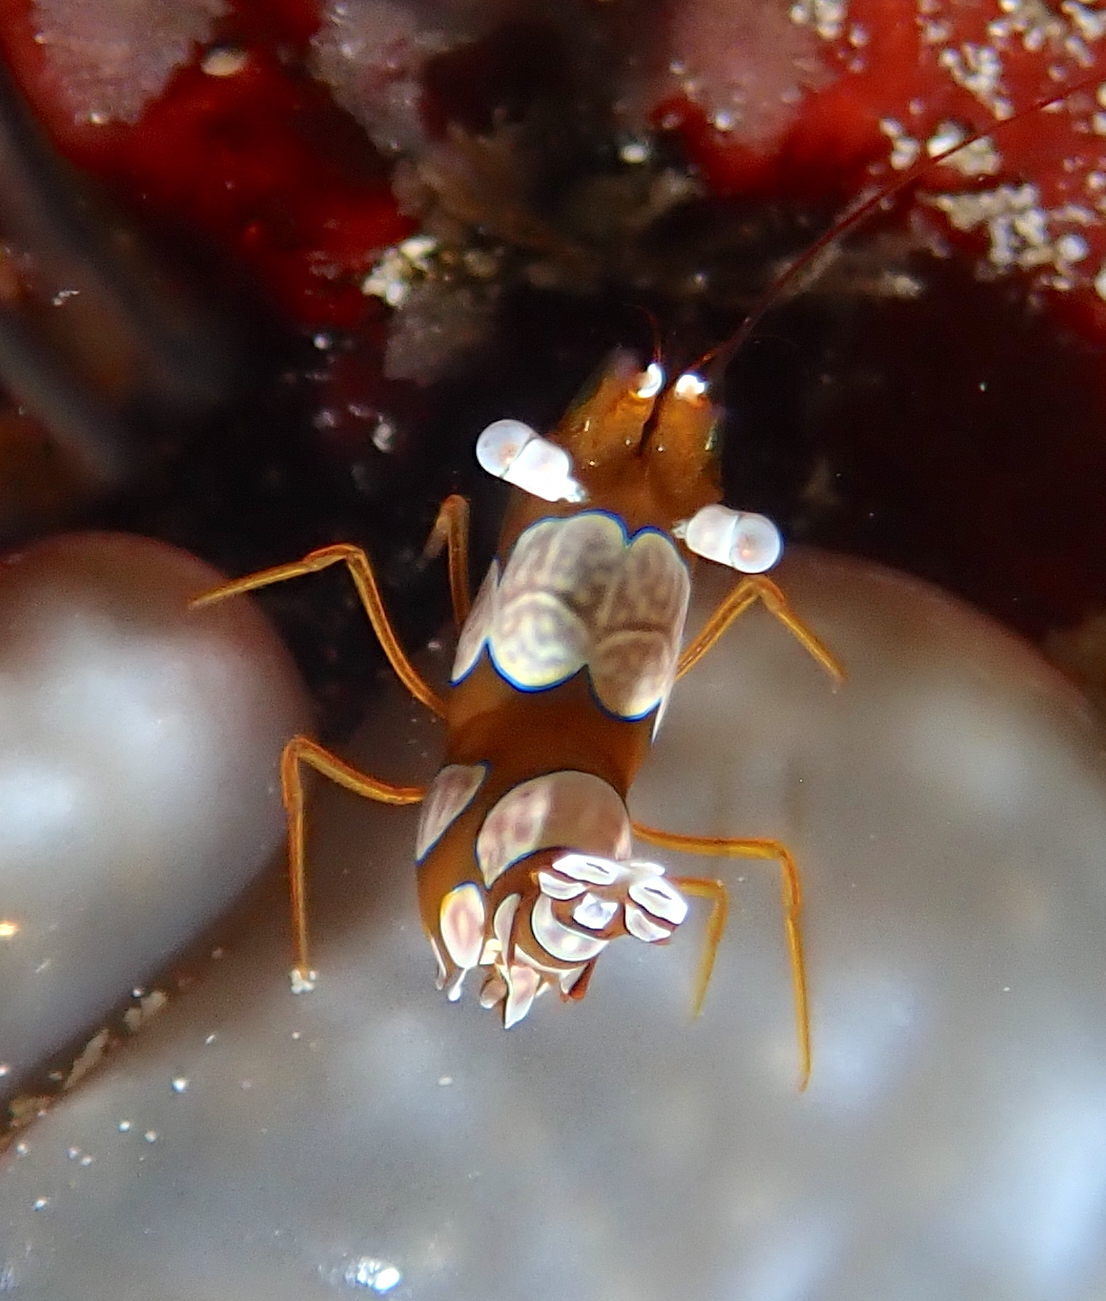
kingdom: Animalia
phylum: Arthropoda
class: Malacostraca
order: Decapoda
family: Thoridae
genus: Thor
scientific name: Thor amboinensis
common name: Squat anemone shrimp
